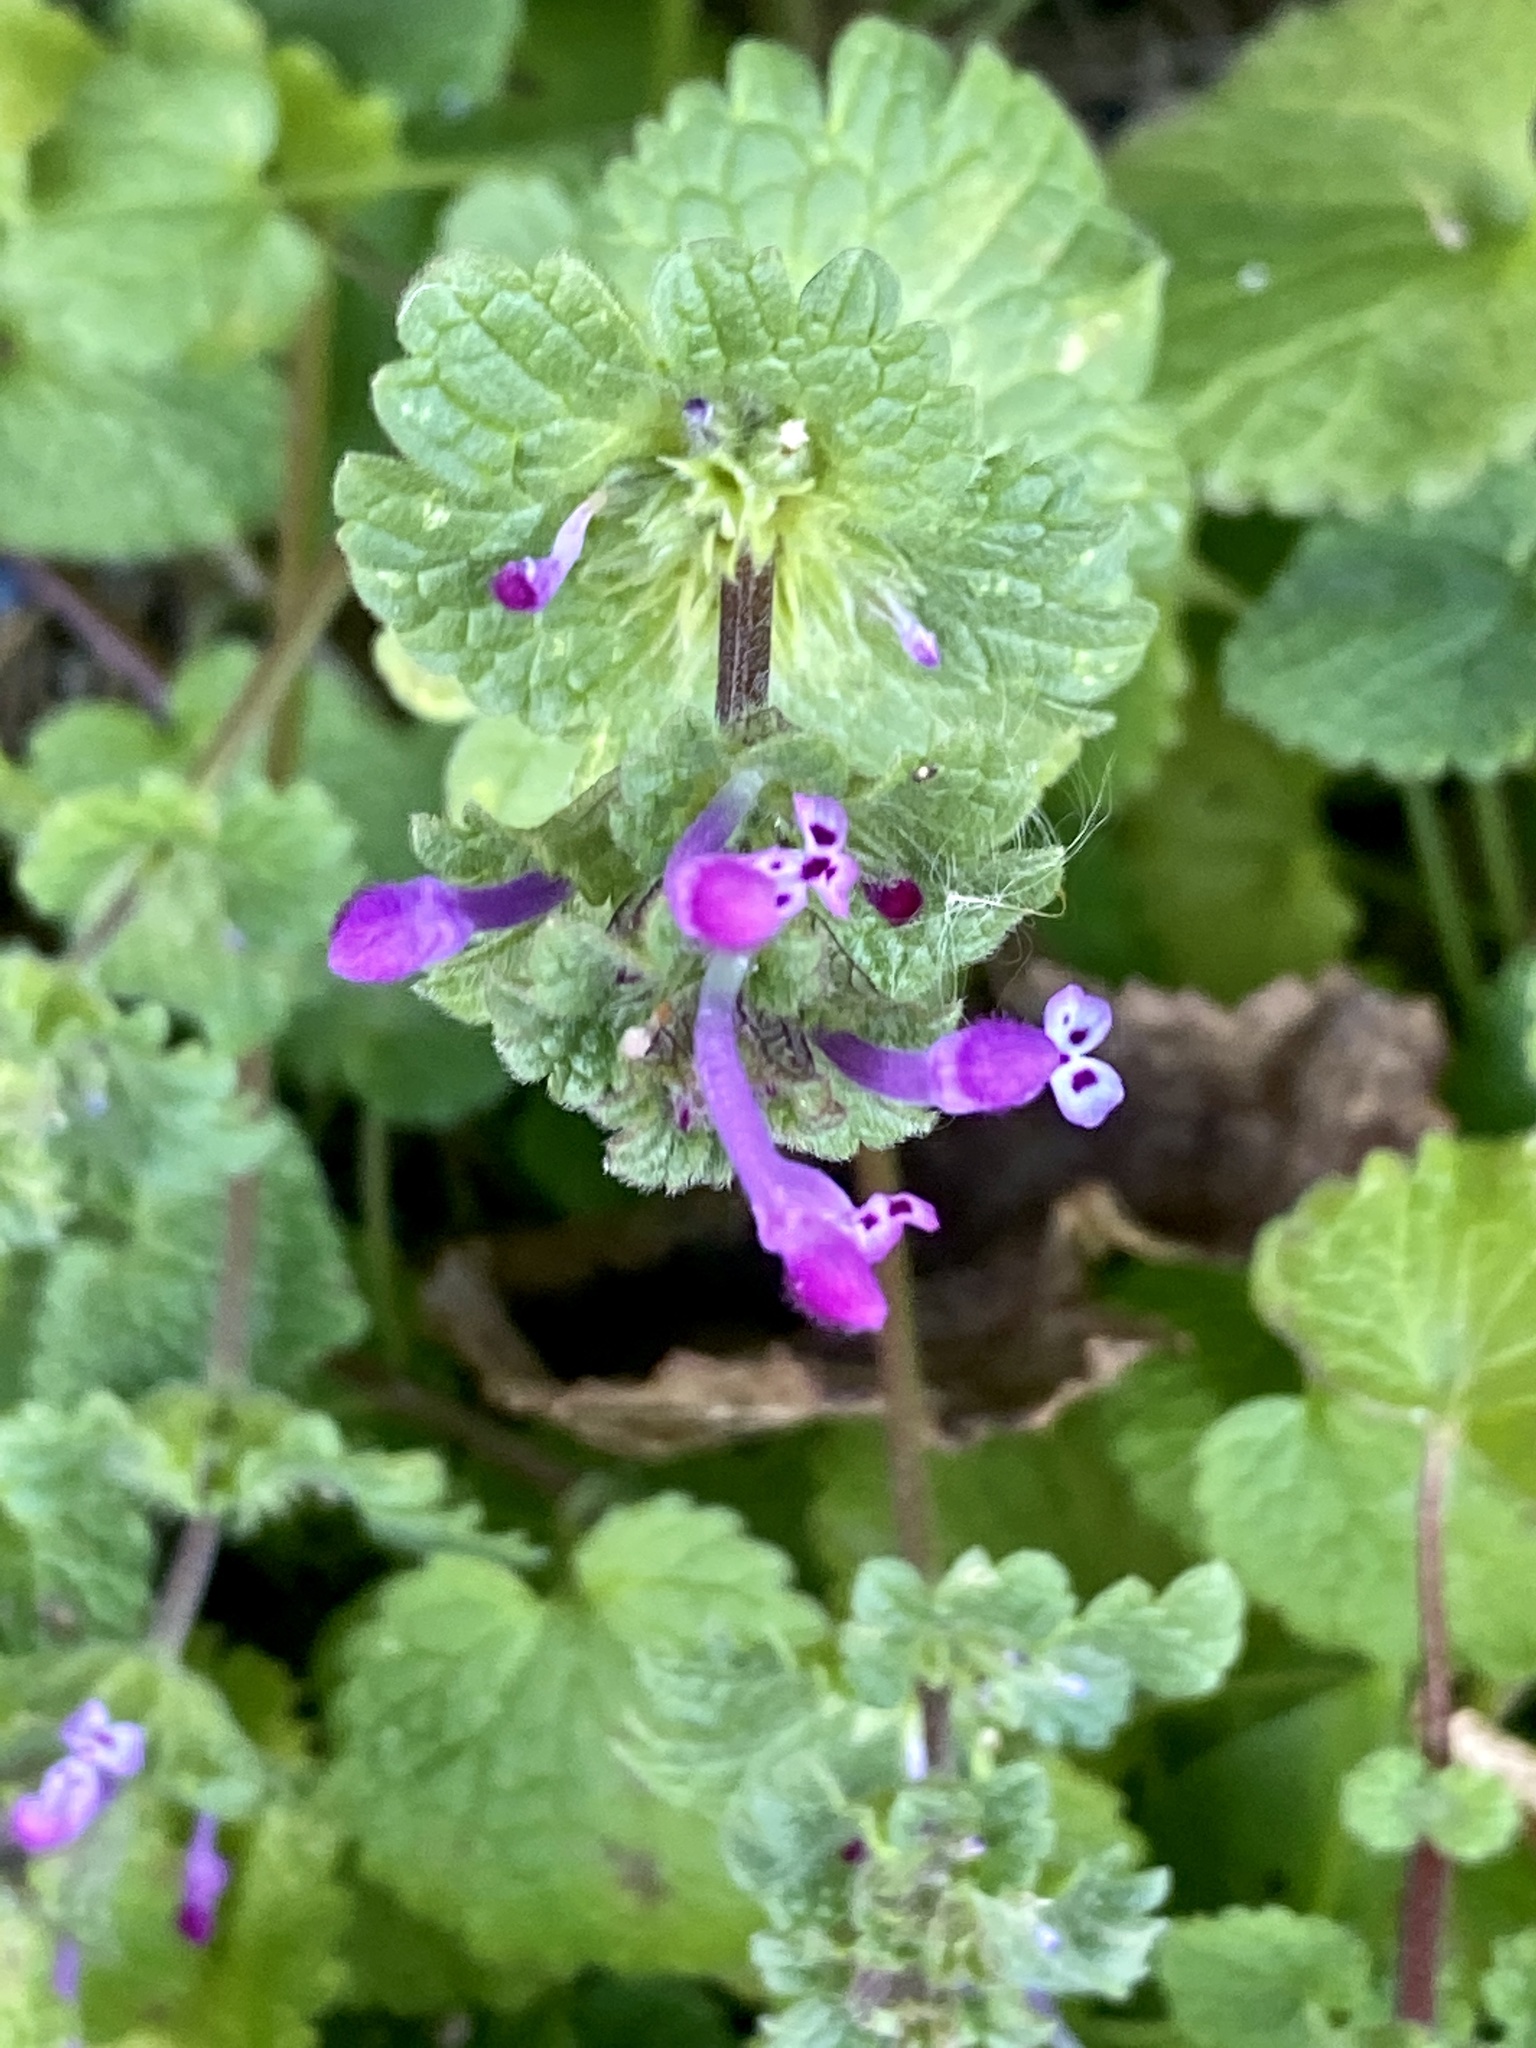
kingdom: Plantae
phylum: Tracheophyta
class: Magnoliopsida
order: Lamiales
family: Lamiaceae
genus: Lamium
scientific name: Lamium amplexicaule
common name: Henbit dead-nettle
